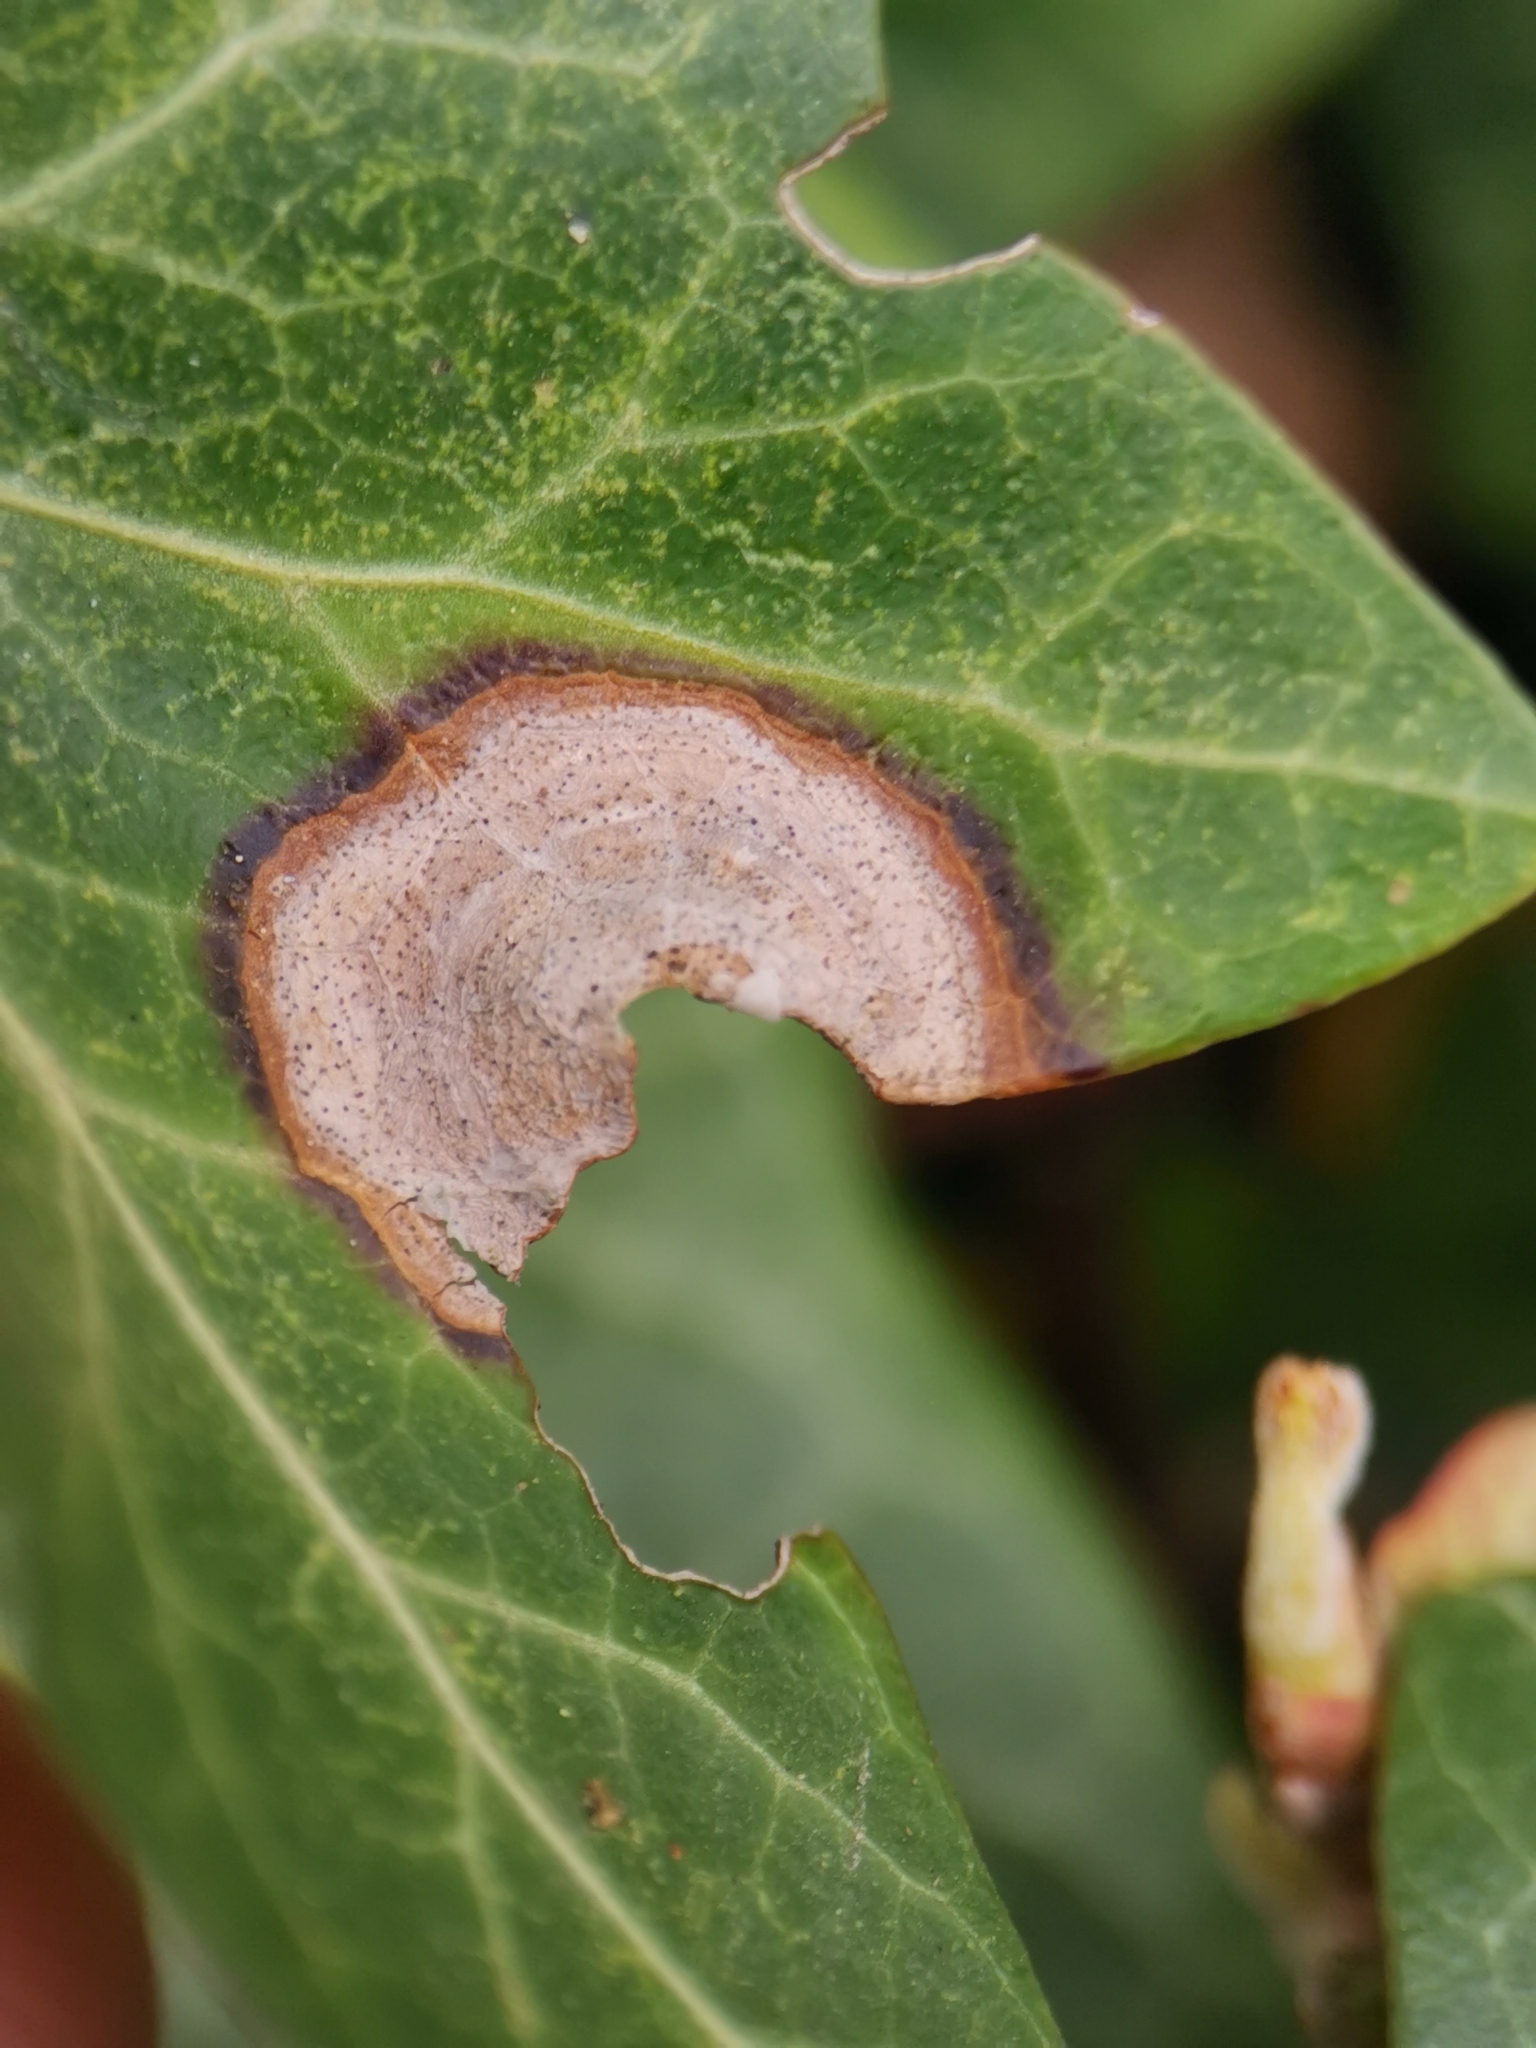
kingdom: Fungi
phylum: Ascomycota
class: Dothideomycetes
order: Pleosporales
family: Didymellaceae
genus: Boeremia
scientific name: Boeremia hedericola
